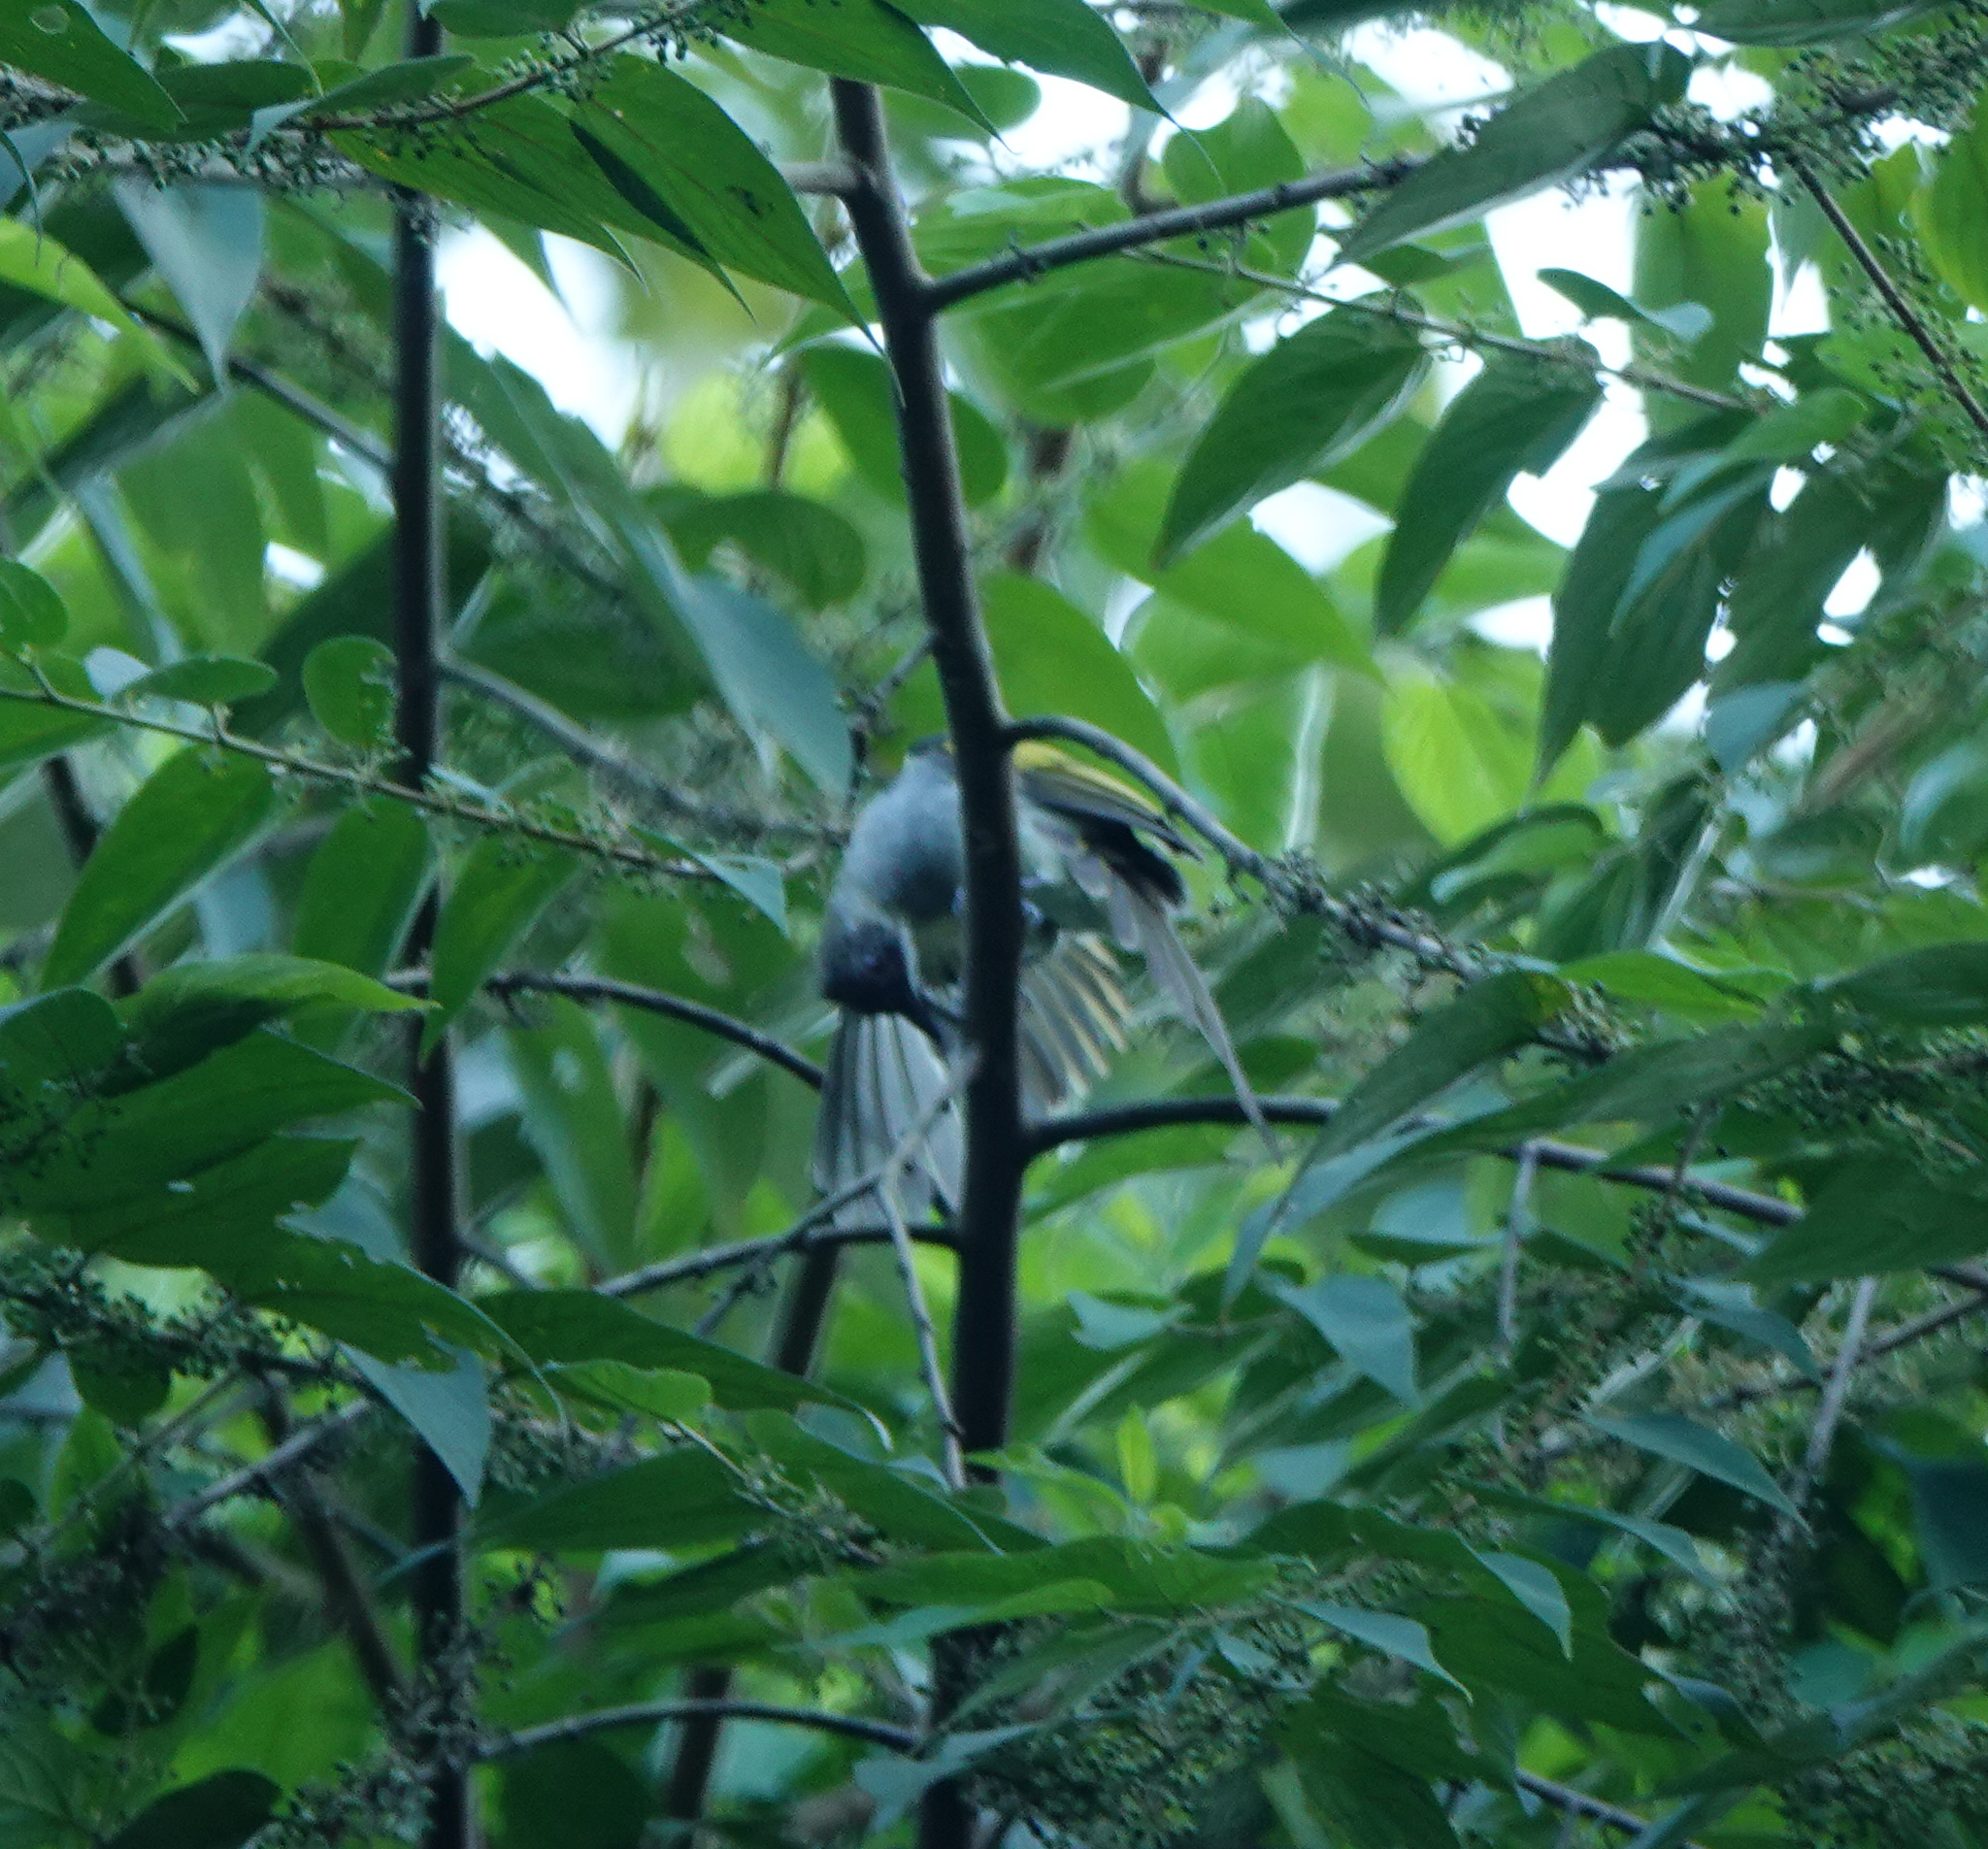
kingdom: Animalia
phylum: Chordata
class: Aves
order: Passeriformes
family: Pycnonotidae
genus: Hemixos
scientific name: Hemixos flavala
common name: Ashy bulbul
